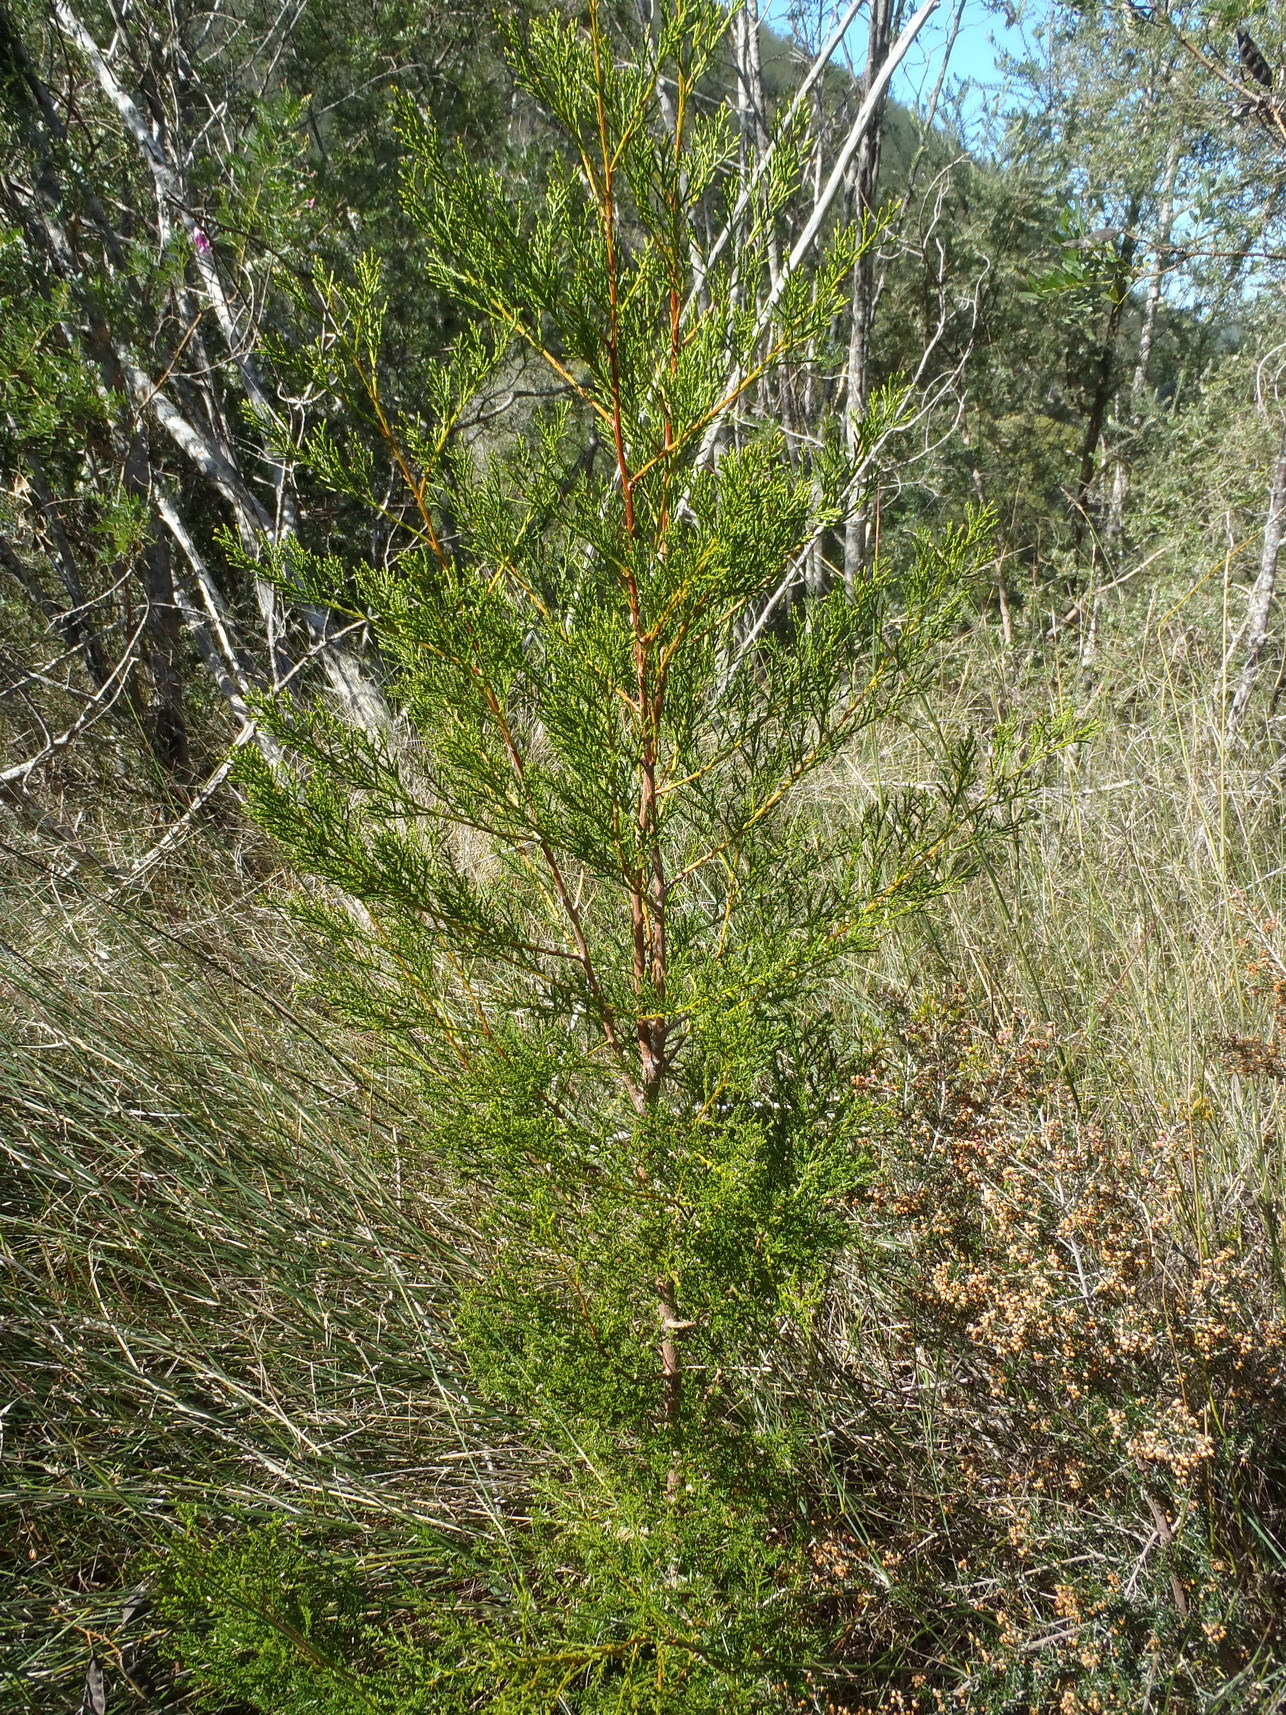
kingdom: Plantae
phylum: Tracheophyta
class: Pinopsida
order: Pinales
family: Cupressaceae
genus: Widdringtonia
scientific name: Widdringtonia nodiflora
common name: Cape cypress
